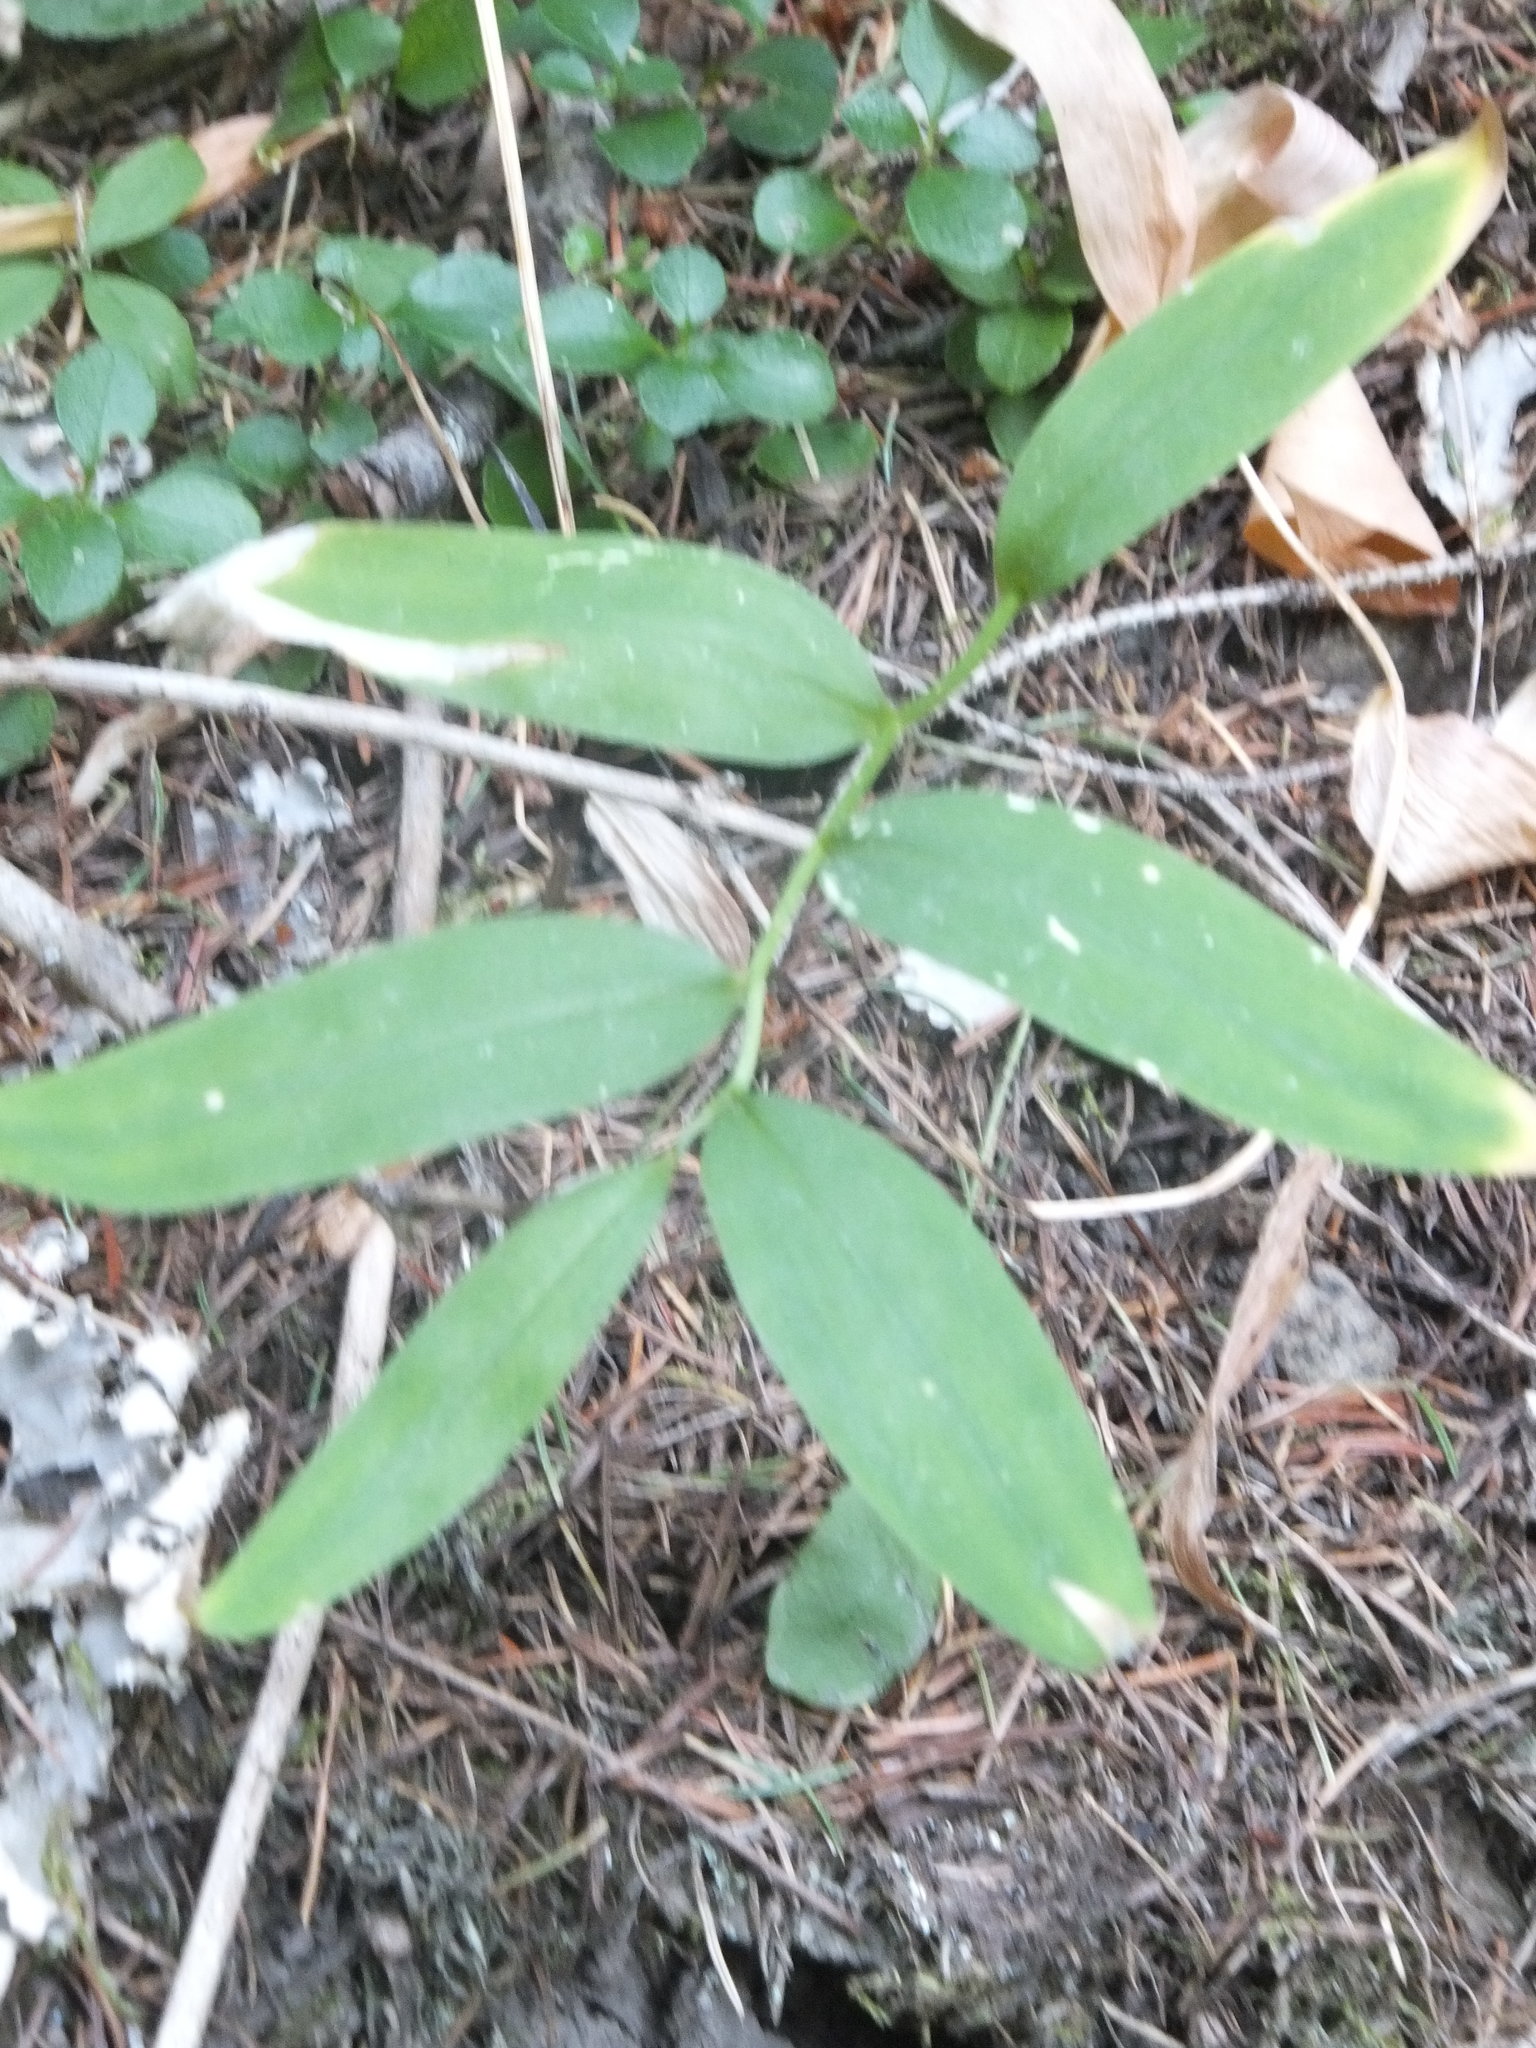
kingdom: Plantae
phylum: Tracheophyta
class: Liliopsida
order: Asparagales
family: Asparagaceae
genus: Maianthemum
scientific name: Maianthemum stellatum
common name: Little false solomon's seal
